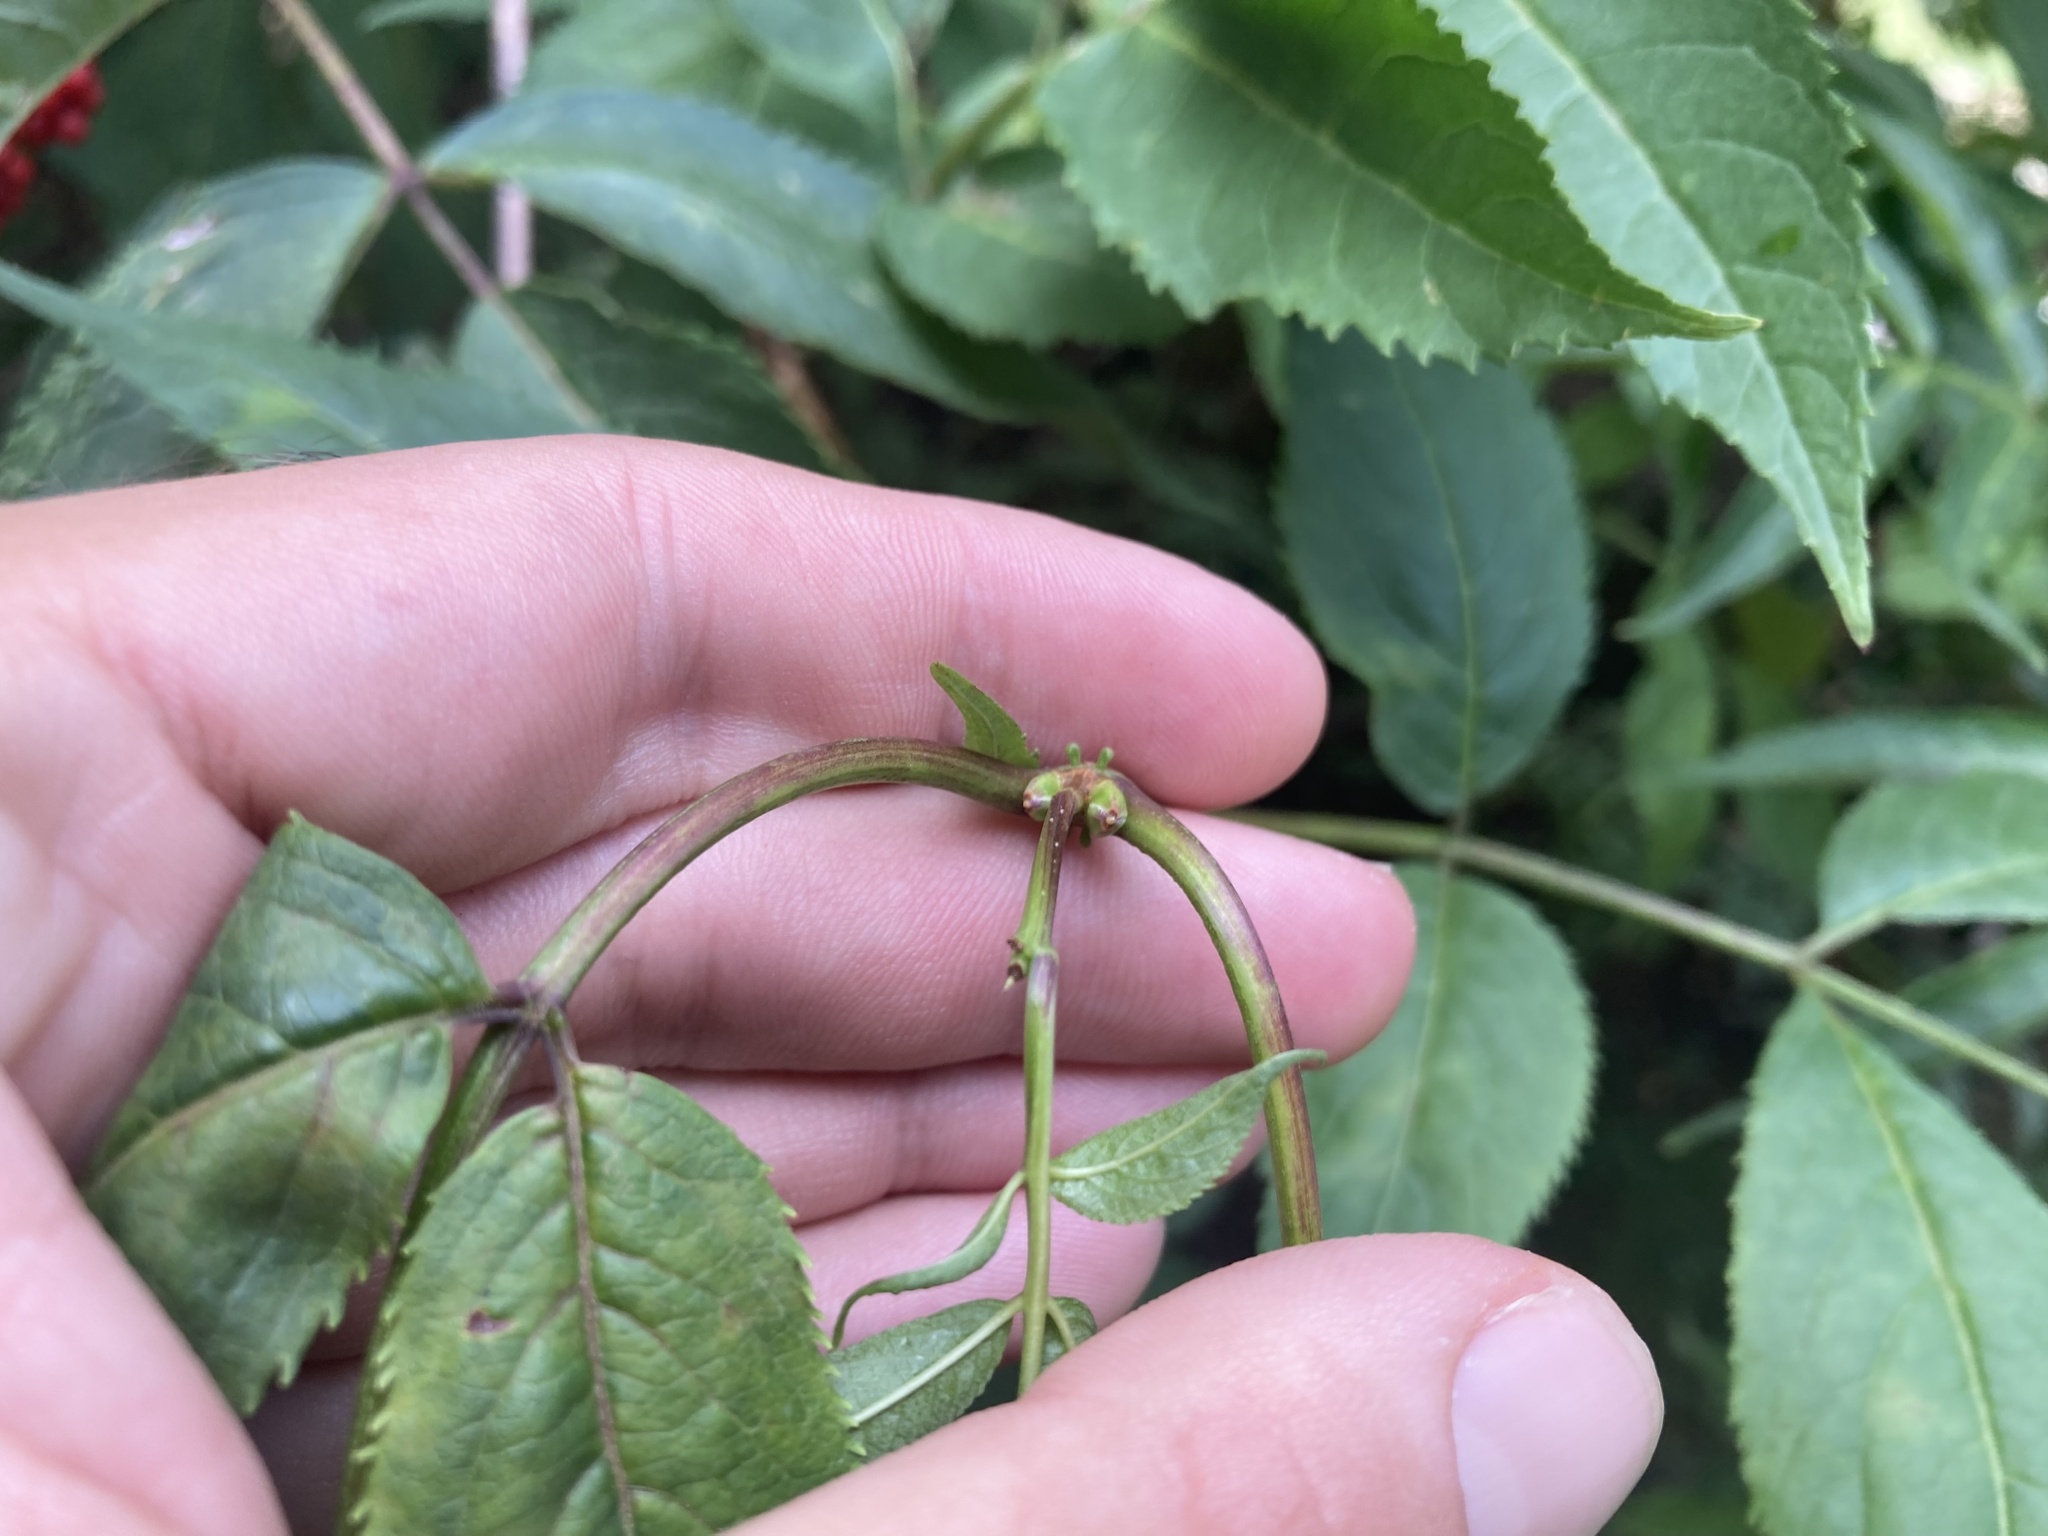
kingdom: Plantae
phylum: Tracheophyta
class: Magnoliopsida
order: Dipsacales
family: Viburnaceae
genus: Sambucus
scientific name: Sambucus racemosa
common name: Red-berried elder
